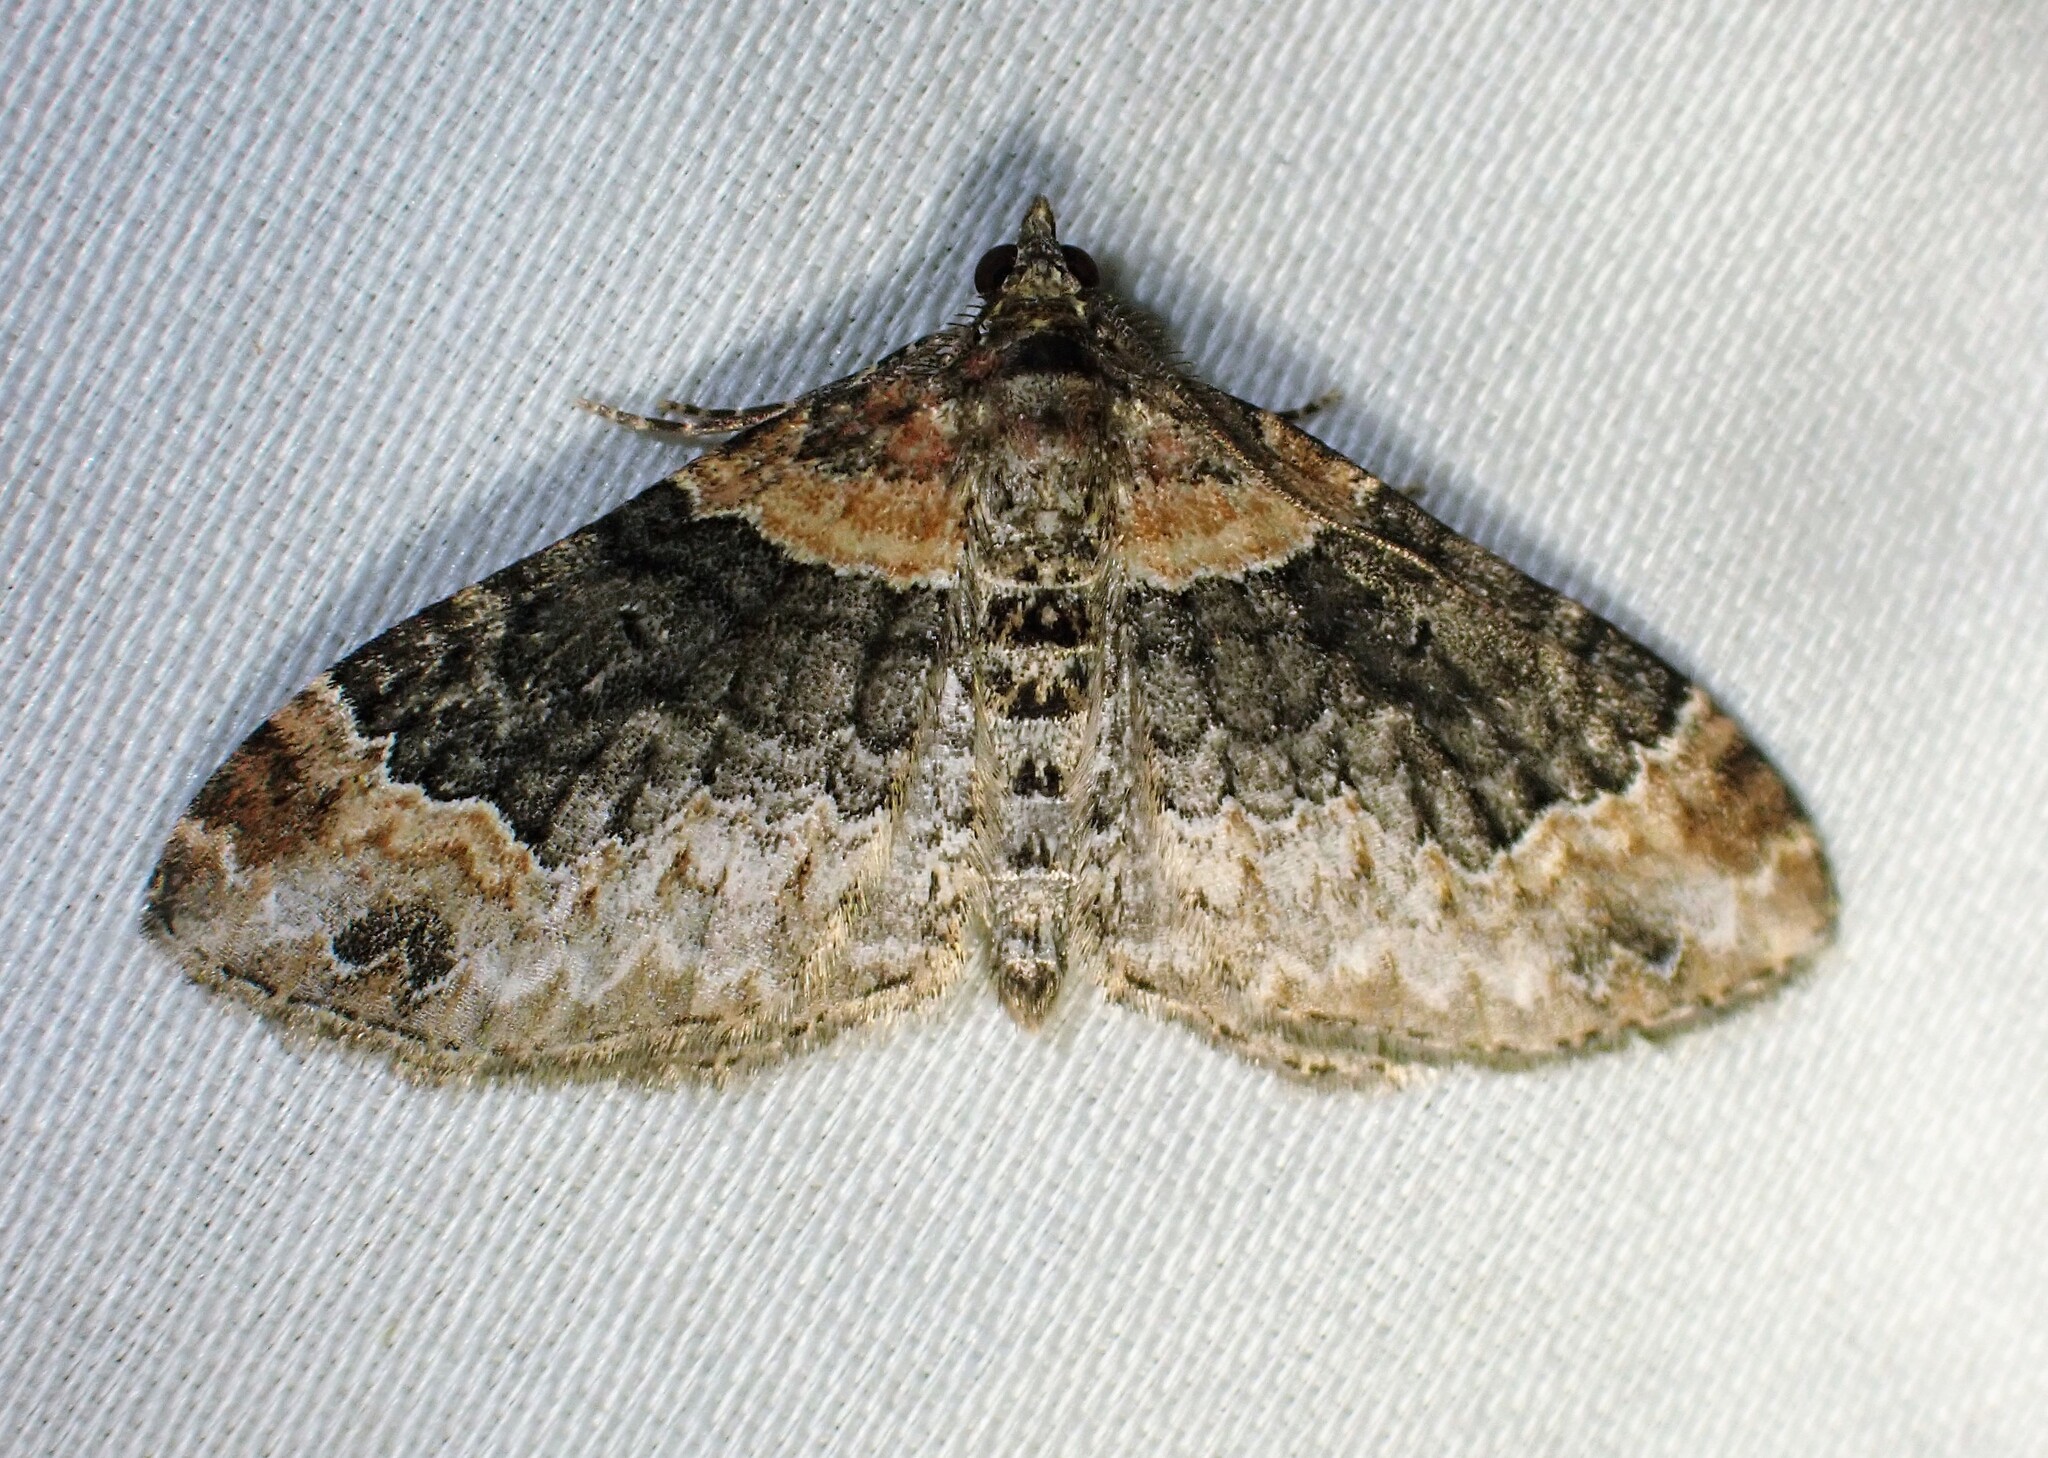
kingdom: Animalia
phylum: Arthropoda
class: Insecta
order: Lepidoptera
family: Geometridae
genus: Xanthorhoe
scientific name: Xanthorhoe ferrugata
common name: Dark-barred twin-spot carpet
